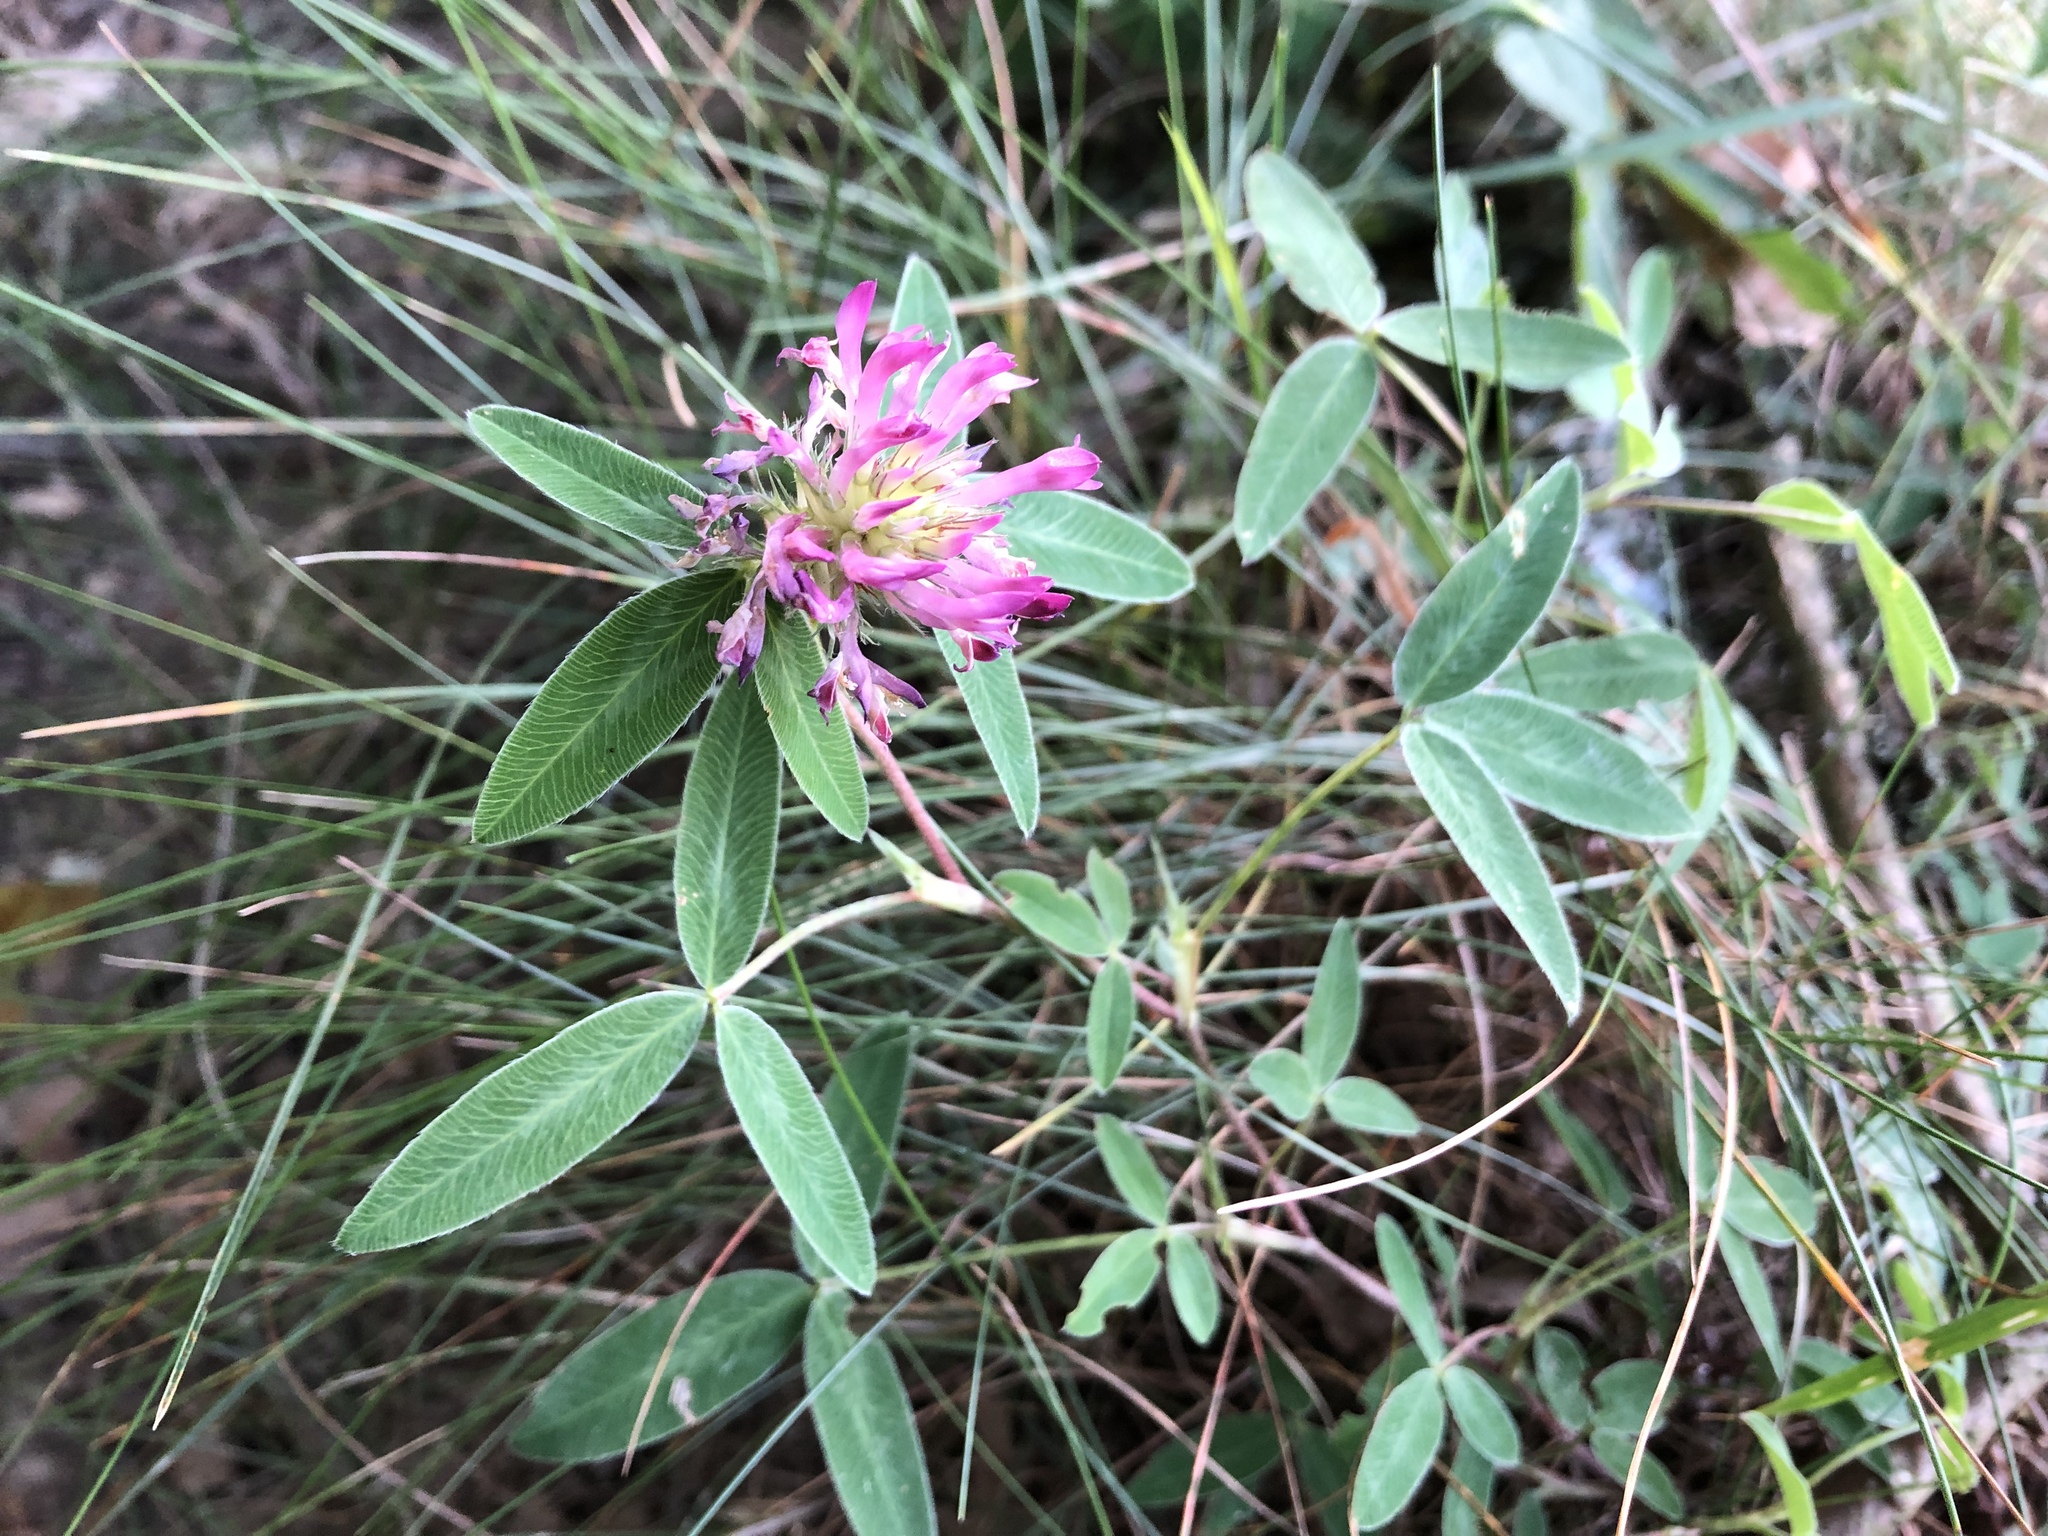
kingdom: Plantae
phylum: Tracheophyta
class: Magnoliopsida
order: Fabales
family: Fabaceae
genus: Trifolium
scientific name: Trifolium medium
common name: Zigzag clover
